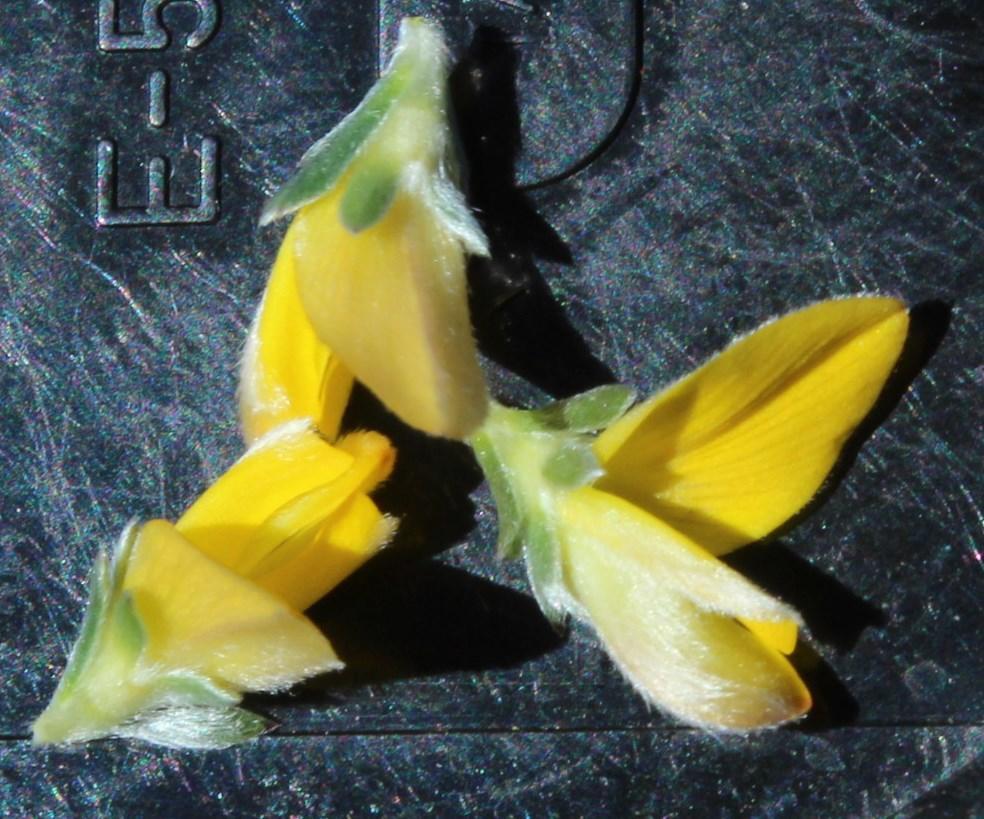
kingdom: Plantae
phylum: Tracheophyta
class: Magnoliopsida
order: Fabales
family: Fabaceae
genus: Aspalathus
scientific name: Aspalathus villosa
